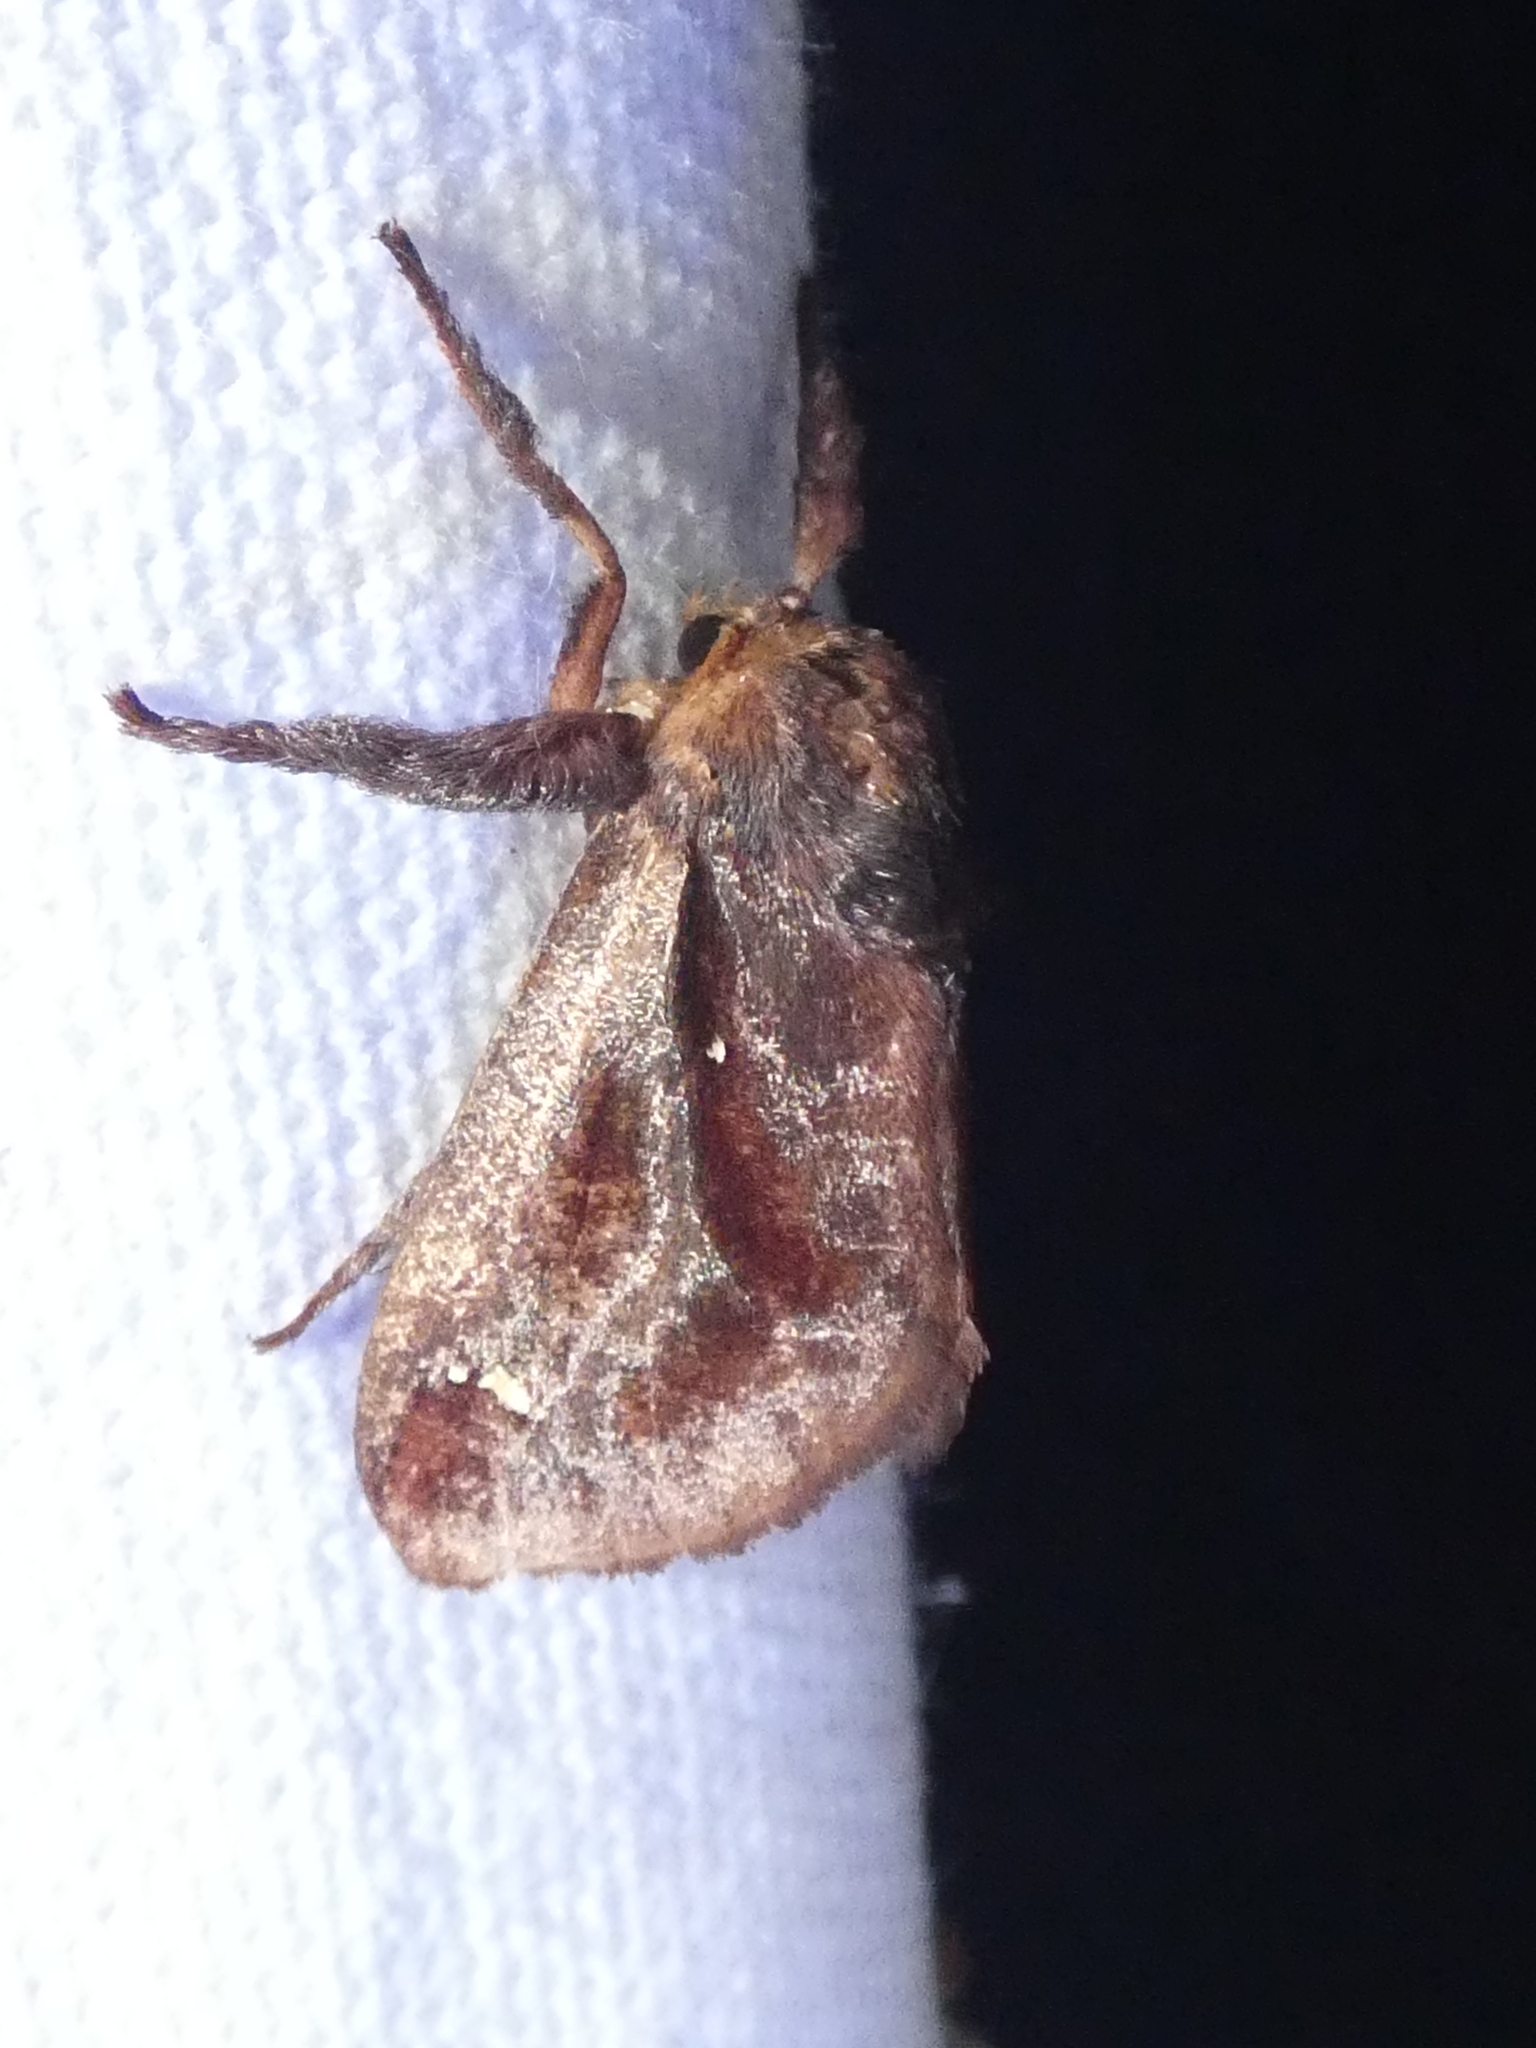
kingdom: Animalia
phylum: Arthropoda
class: Insecta
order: Lepidoptera
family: Limacodidae
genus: Acharia
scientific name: Acharia stimulea
